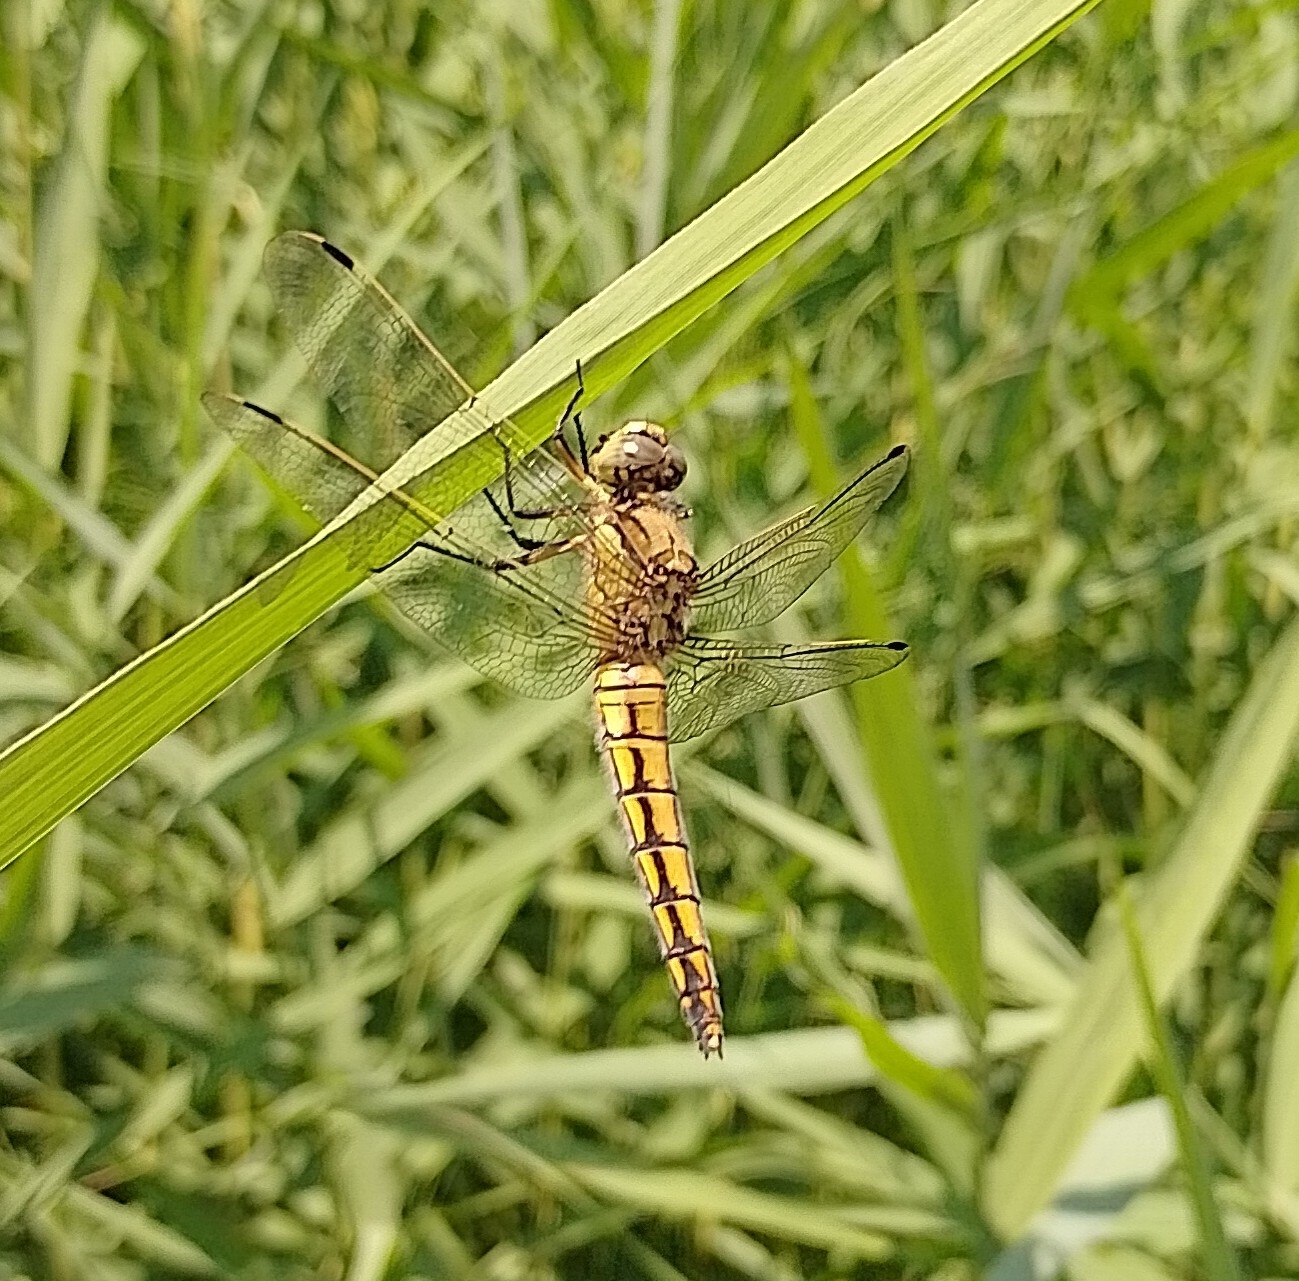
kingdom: Animalia
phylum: Arthropoda
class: Insecta
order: Odonata
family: Libellulidae
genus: Orthetrum
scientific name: Orthetrum cancellatum
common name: Black-tailed skimmer
